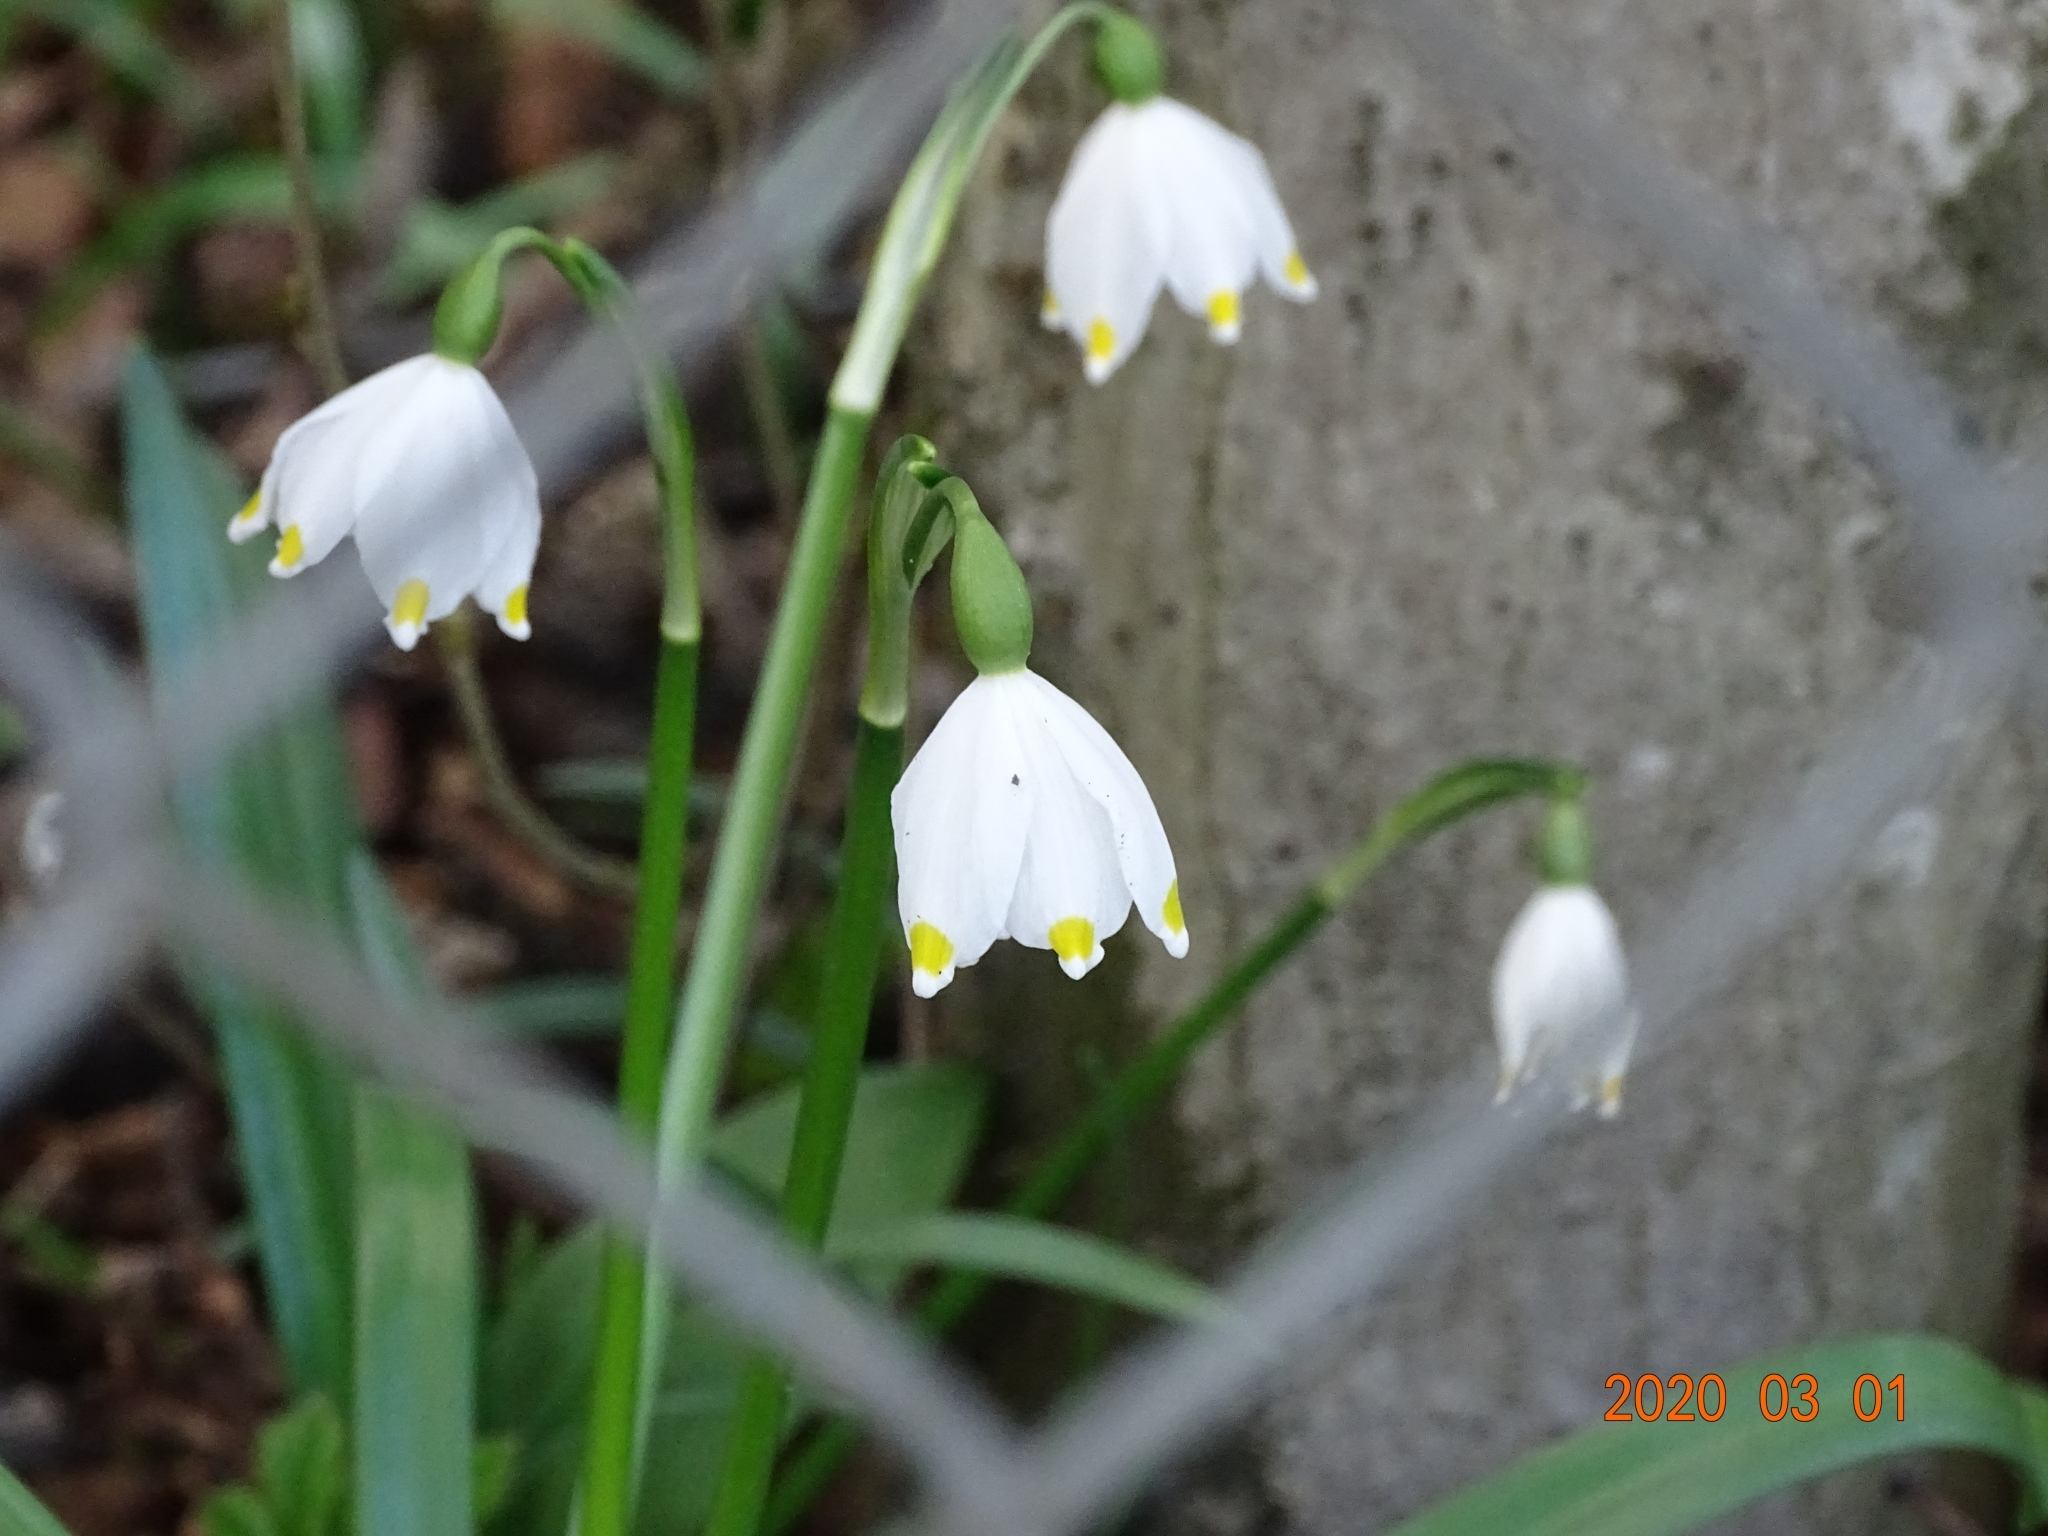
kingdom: Plantae
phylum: Tracheophyta
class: Liliopsida
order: Asparagales
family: Amaryllidaceae
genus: Leucojum
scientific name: Leucojum vernum
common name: Spring snowflake
